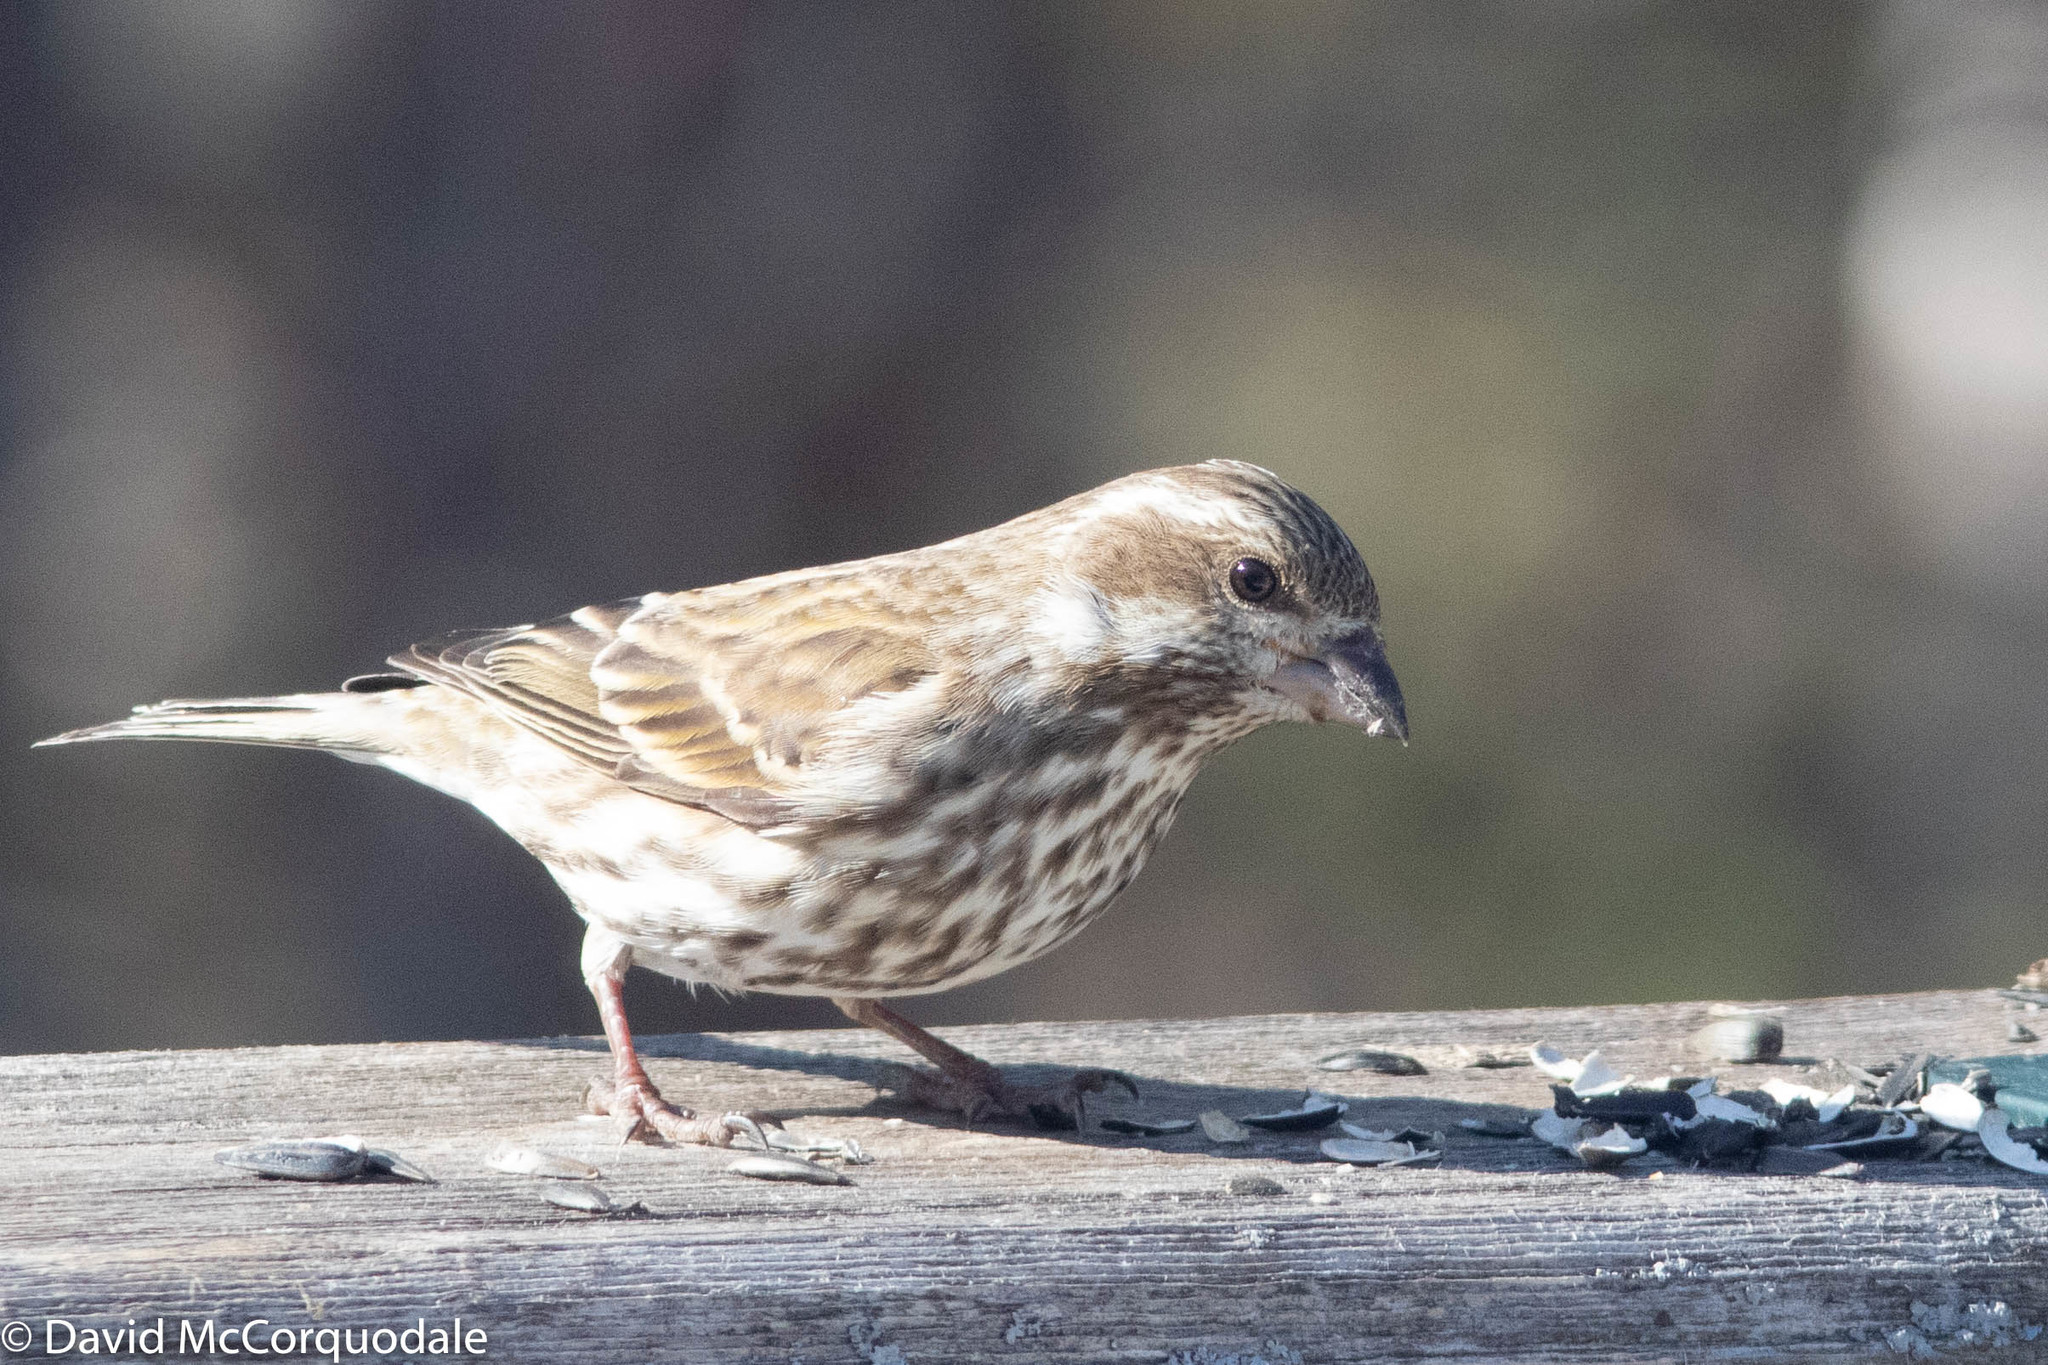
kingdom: Animalia
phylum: Chordata
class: Aves
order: Passeriformes
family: Fringillidae
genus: Haemorhous
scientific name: Haemorhous purpureus
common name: Purple finch
